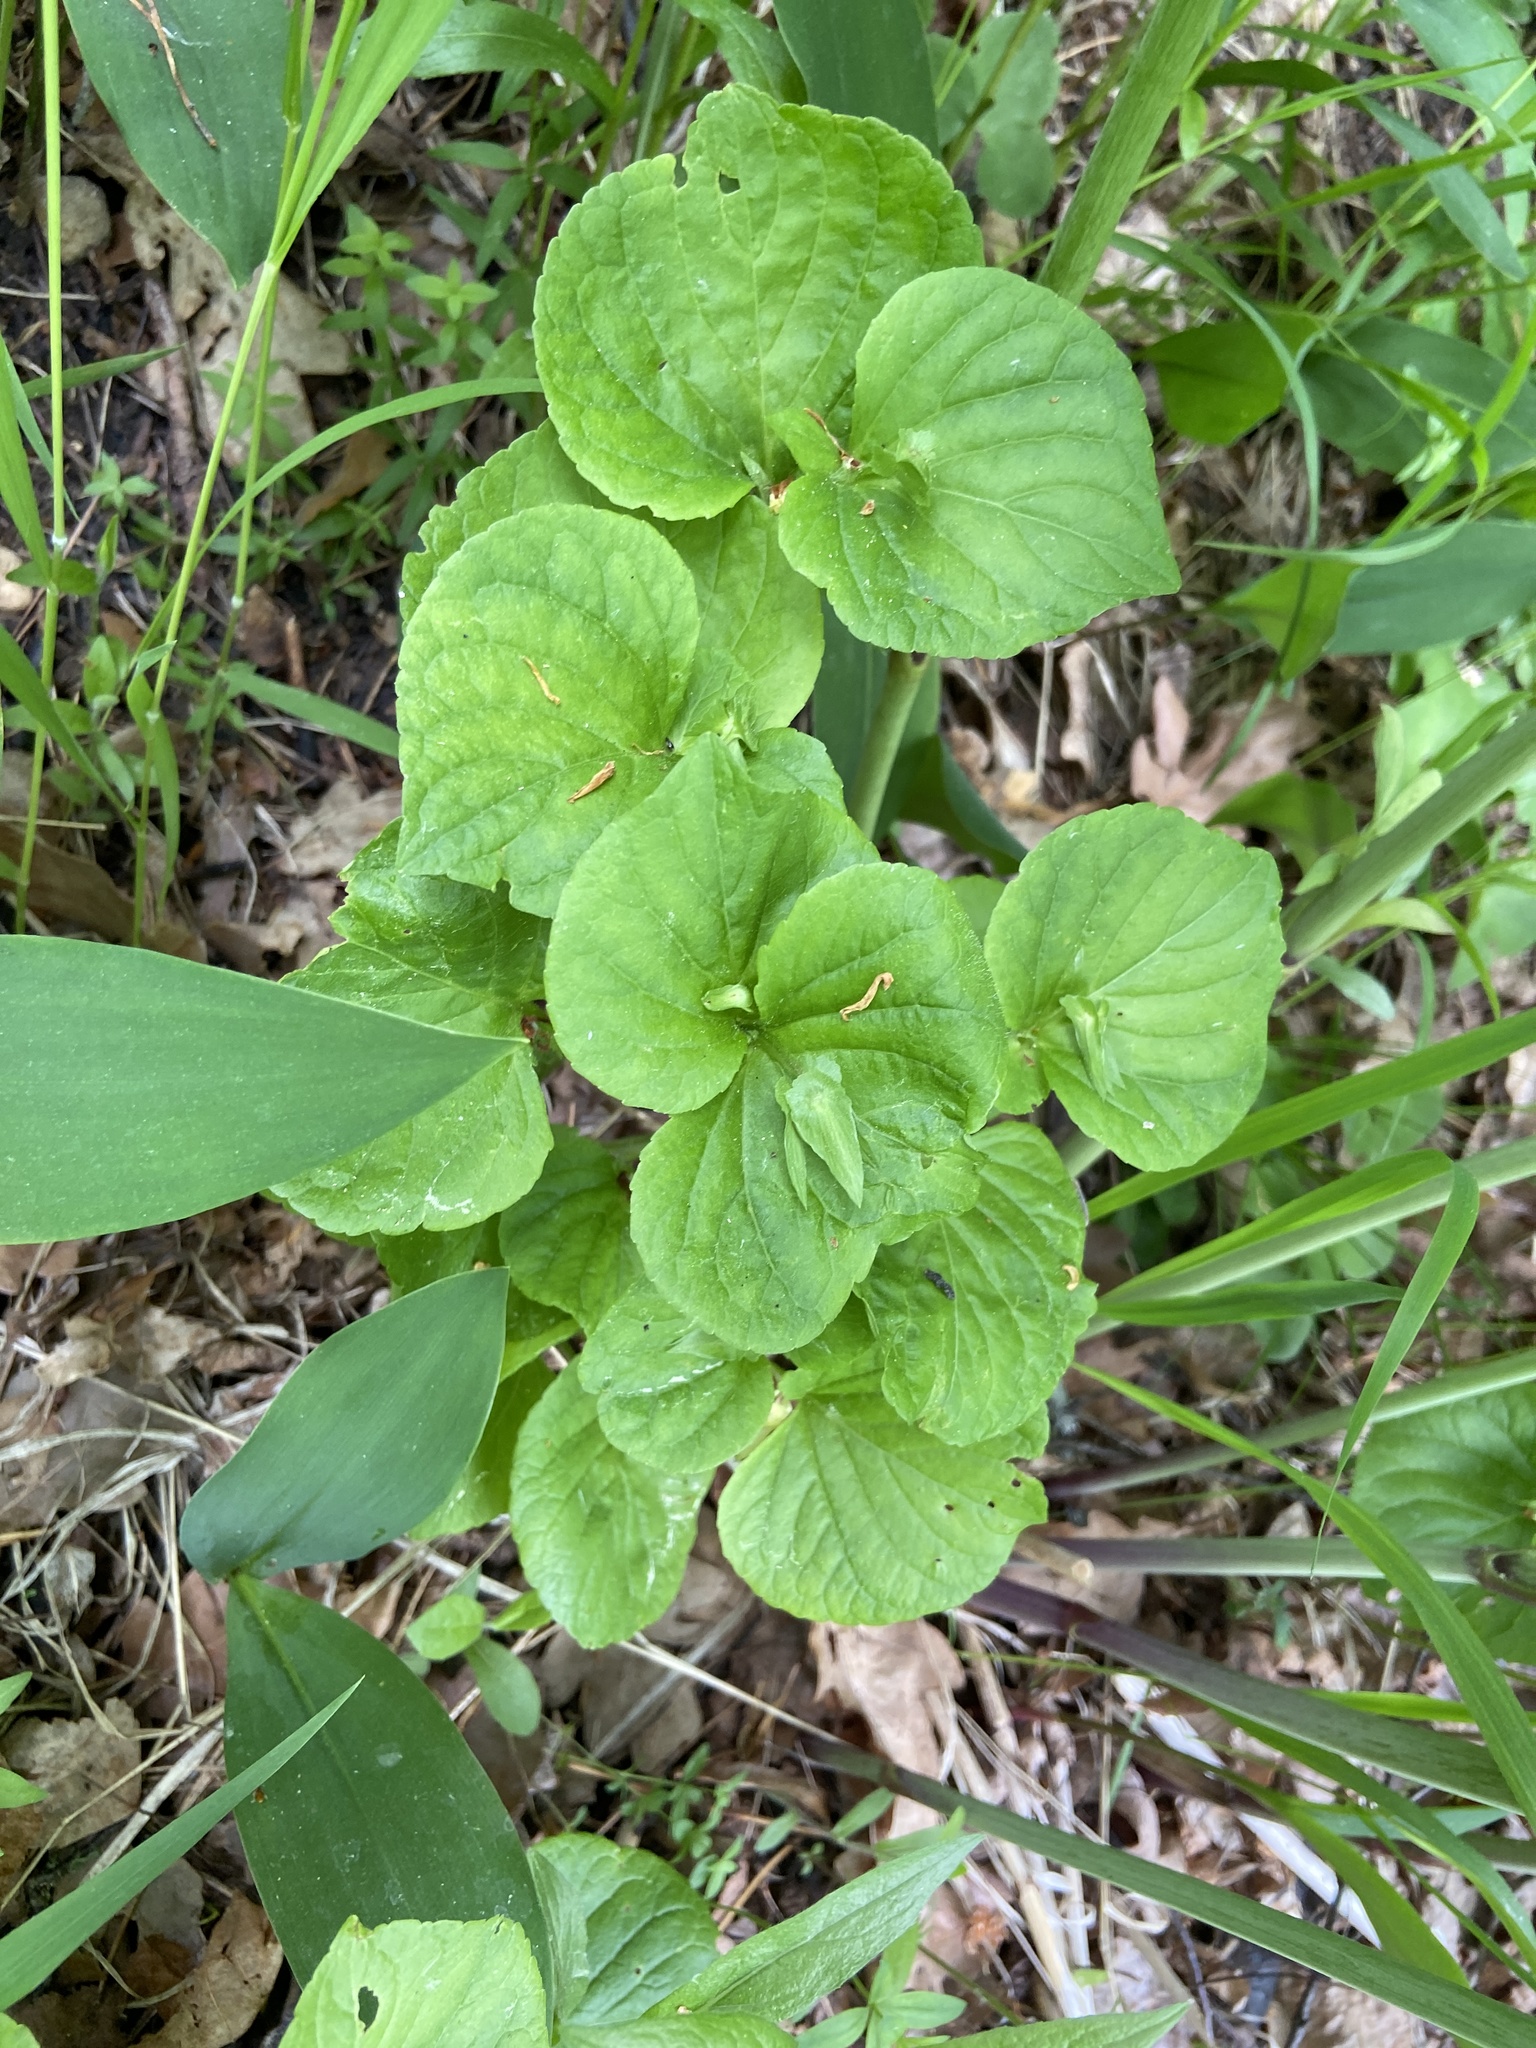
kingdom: Plantae
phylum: Tracheophyta
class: Magnoliopsida
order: Malpighiales
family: Violaceae
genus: Viola
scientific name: Viola mirabilis
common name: Wonder violet
